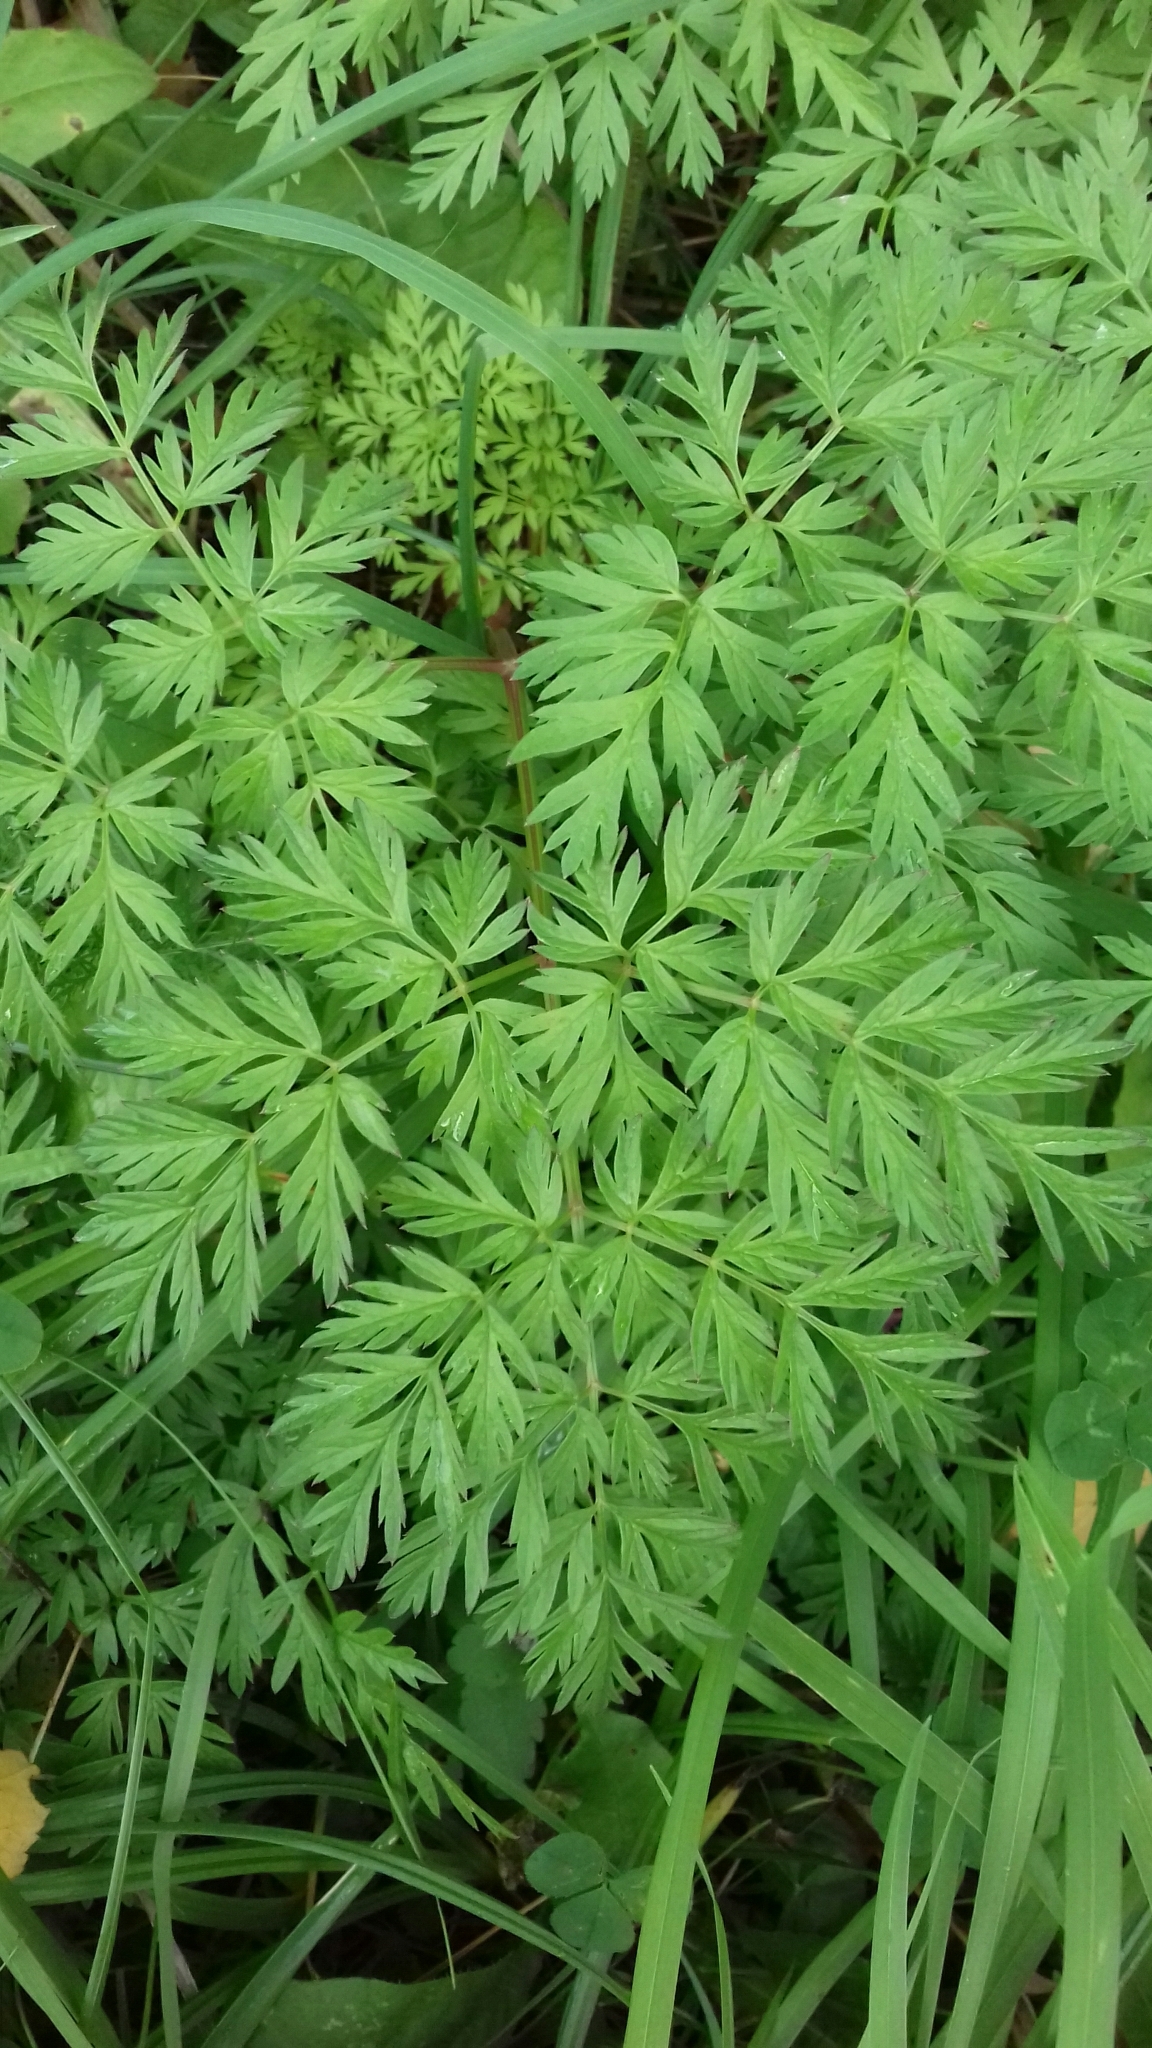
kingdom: Plantae
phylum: Tracheophyta
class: Magnoliopsida
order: Apiales
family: Apiaceae
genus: Anthriscus
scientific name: Anthriscus sylvestris
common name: Cow parsley
